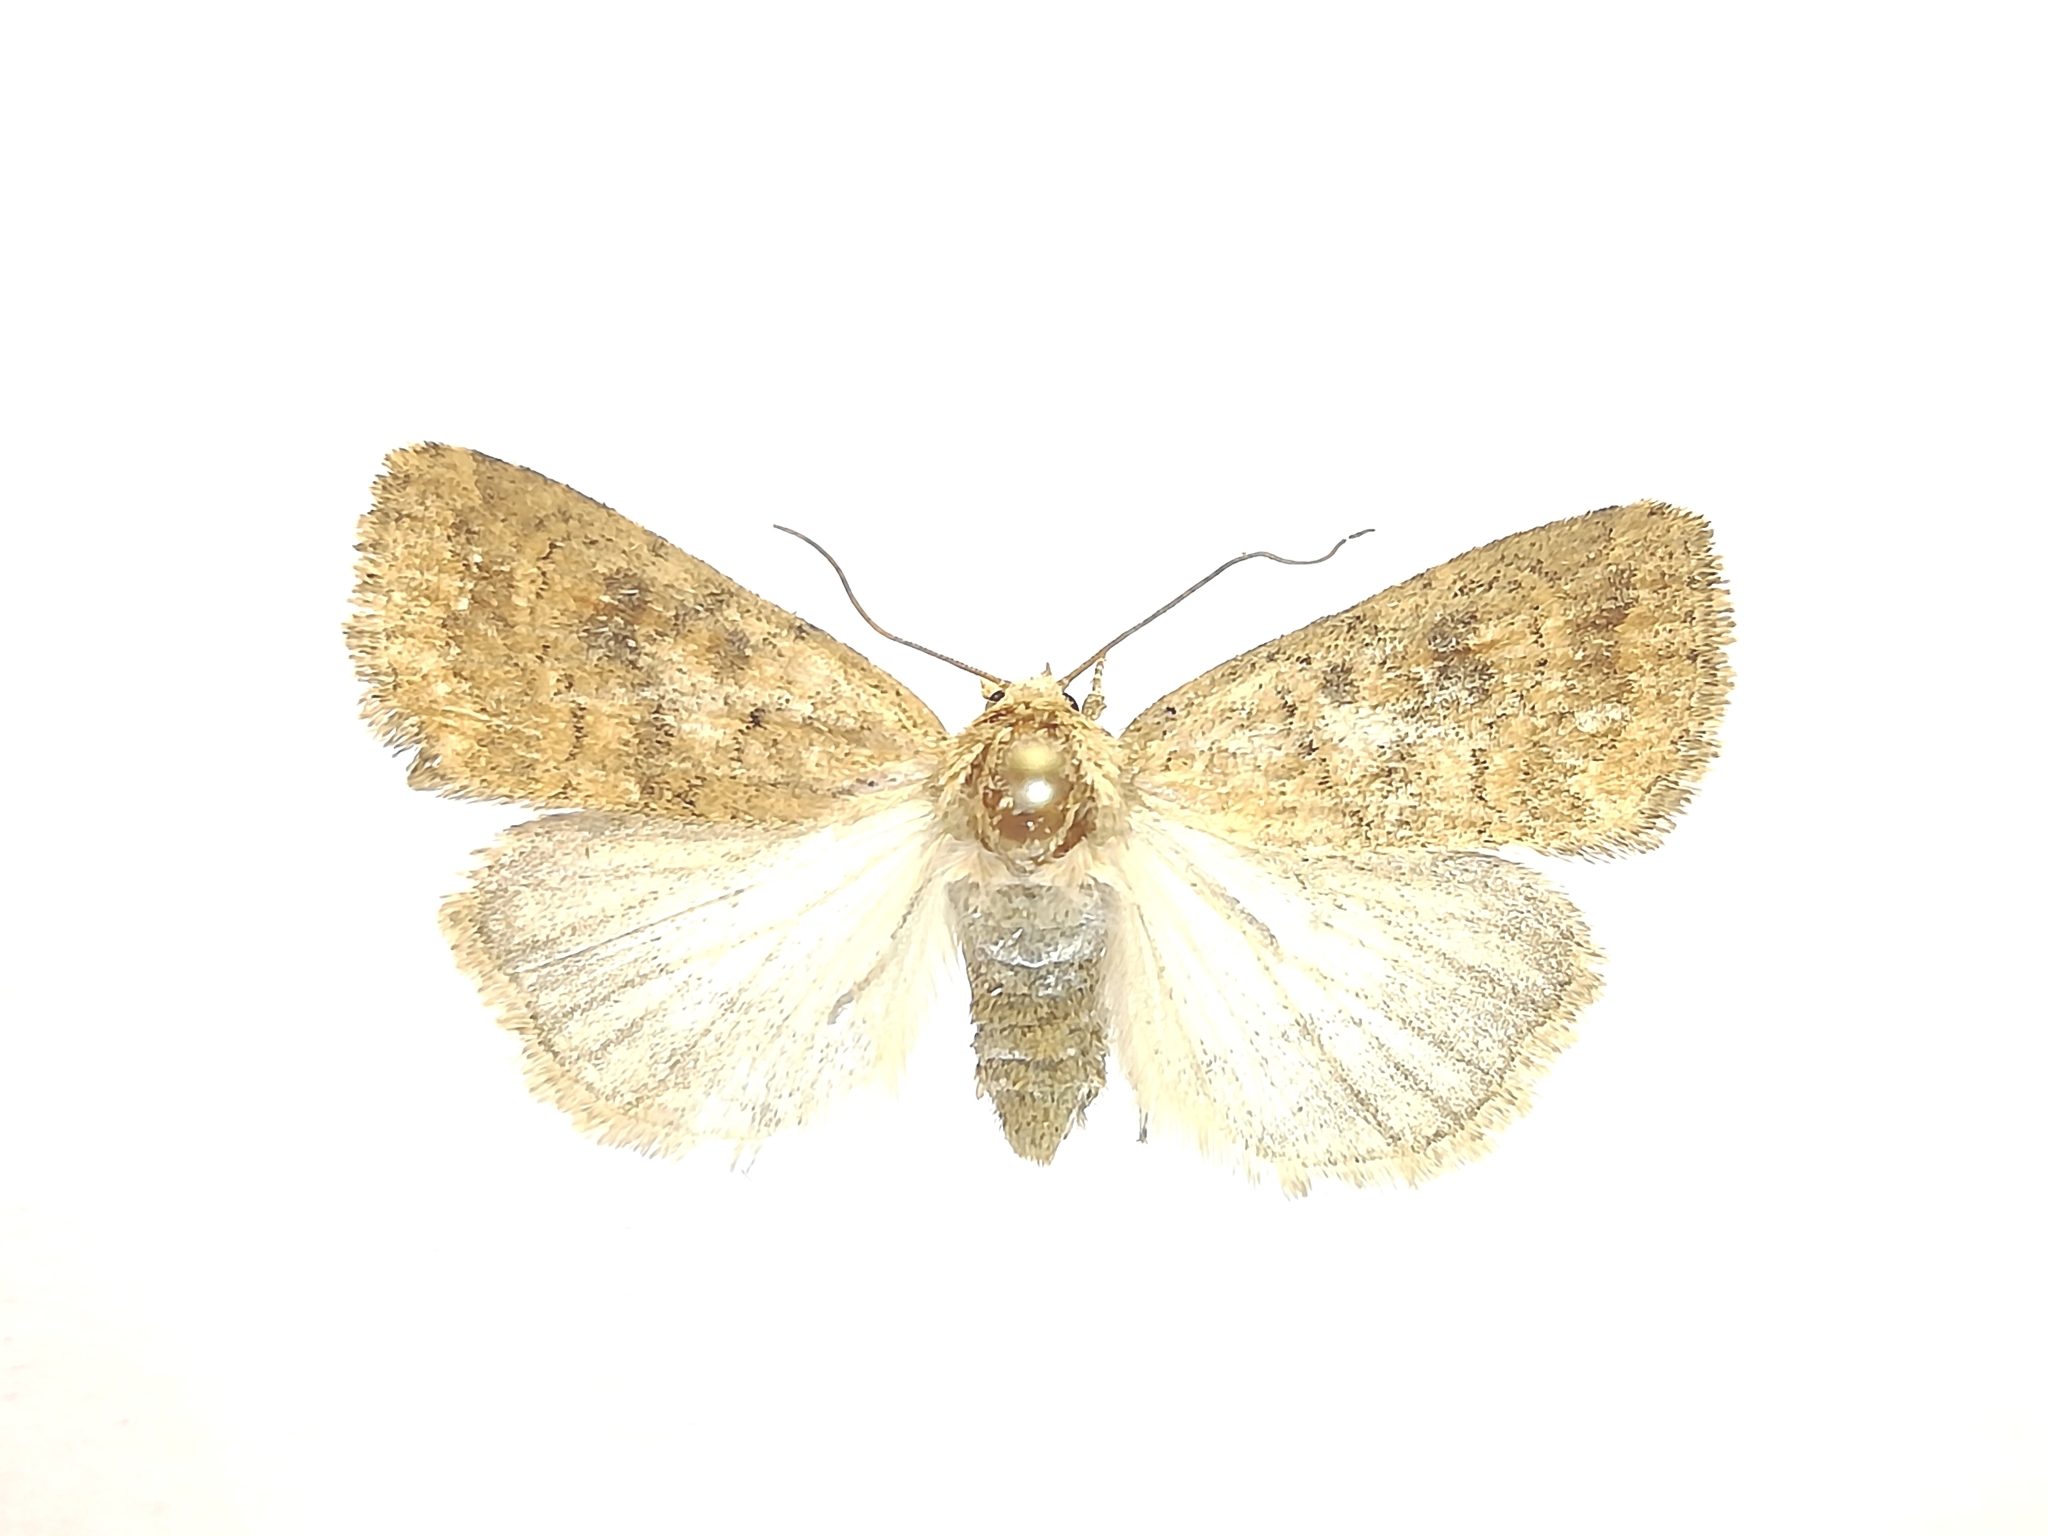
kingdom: Animalia
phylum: Arthropoda
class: Insecta
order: Lepidoptera
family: Noctuidae
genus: Caradrina
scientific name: Caradrina morpheus
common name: Mottled rustic
